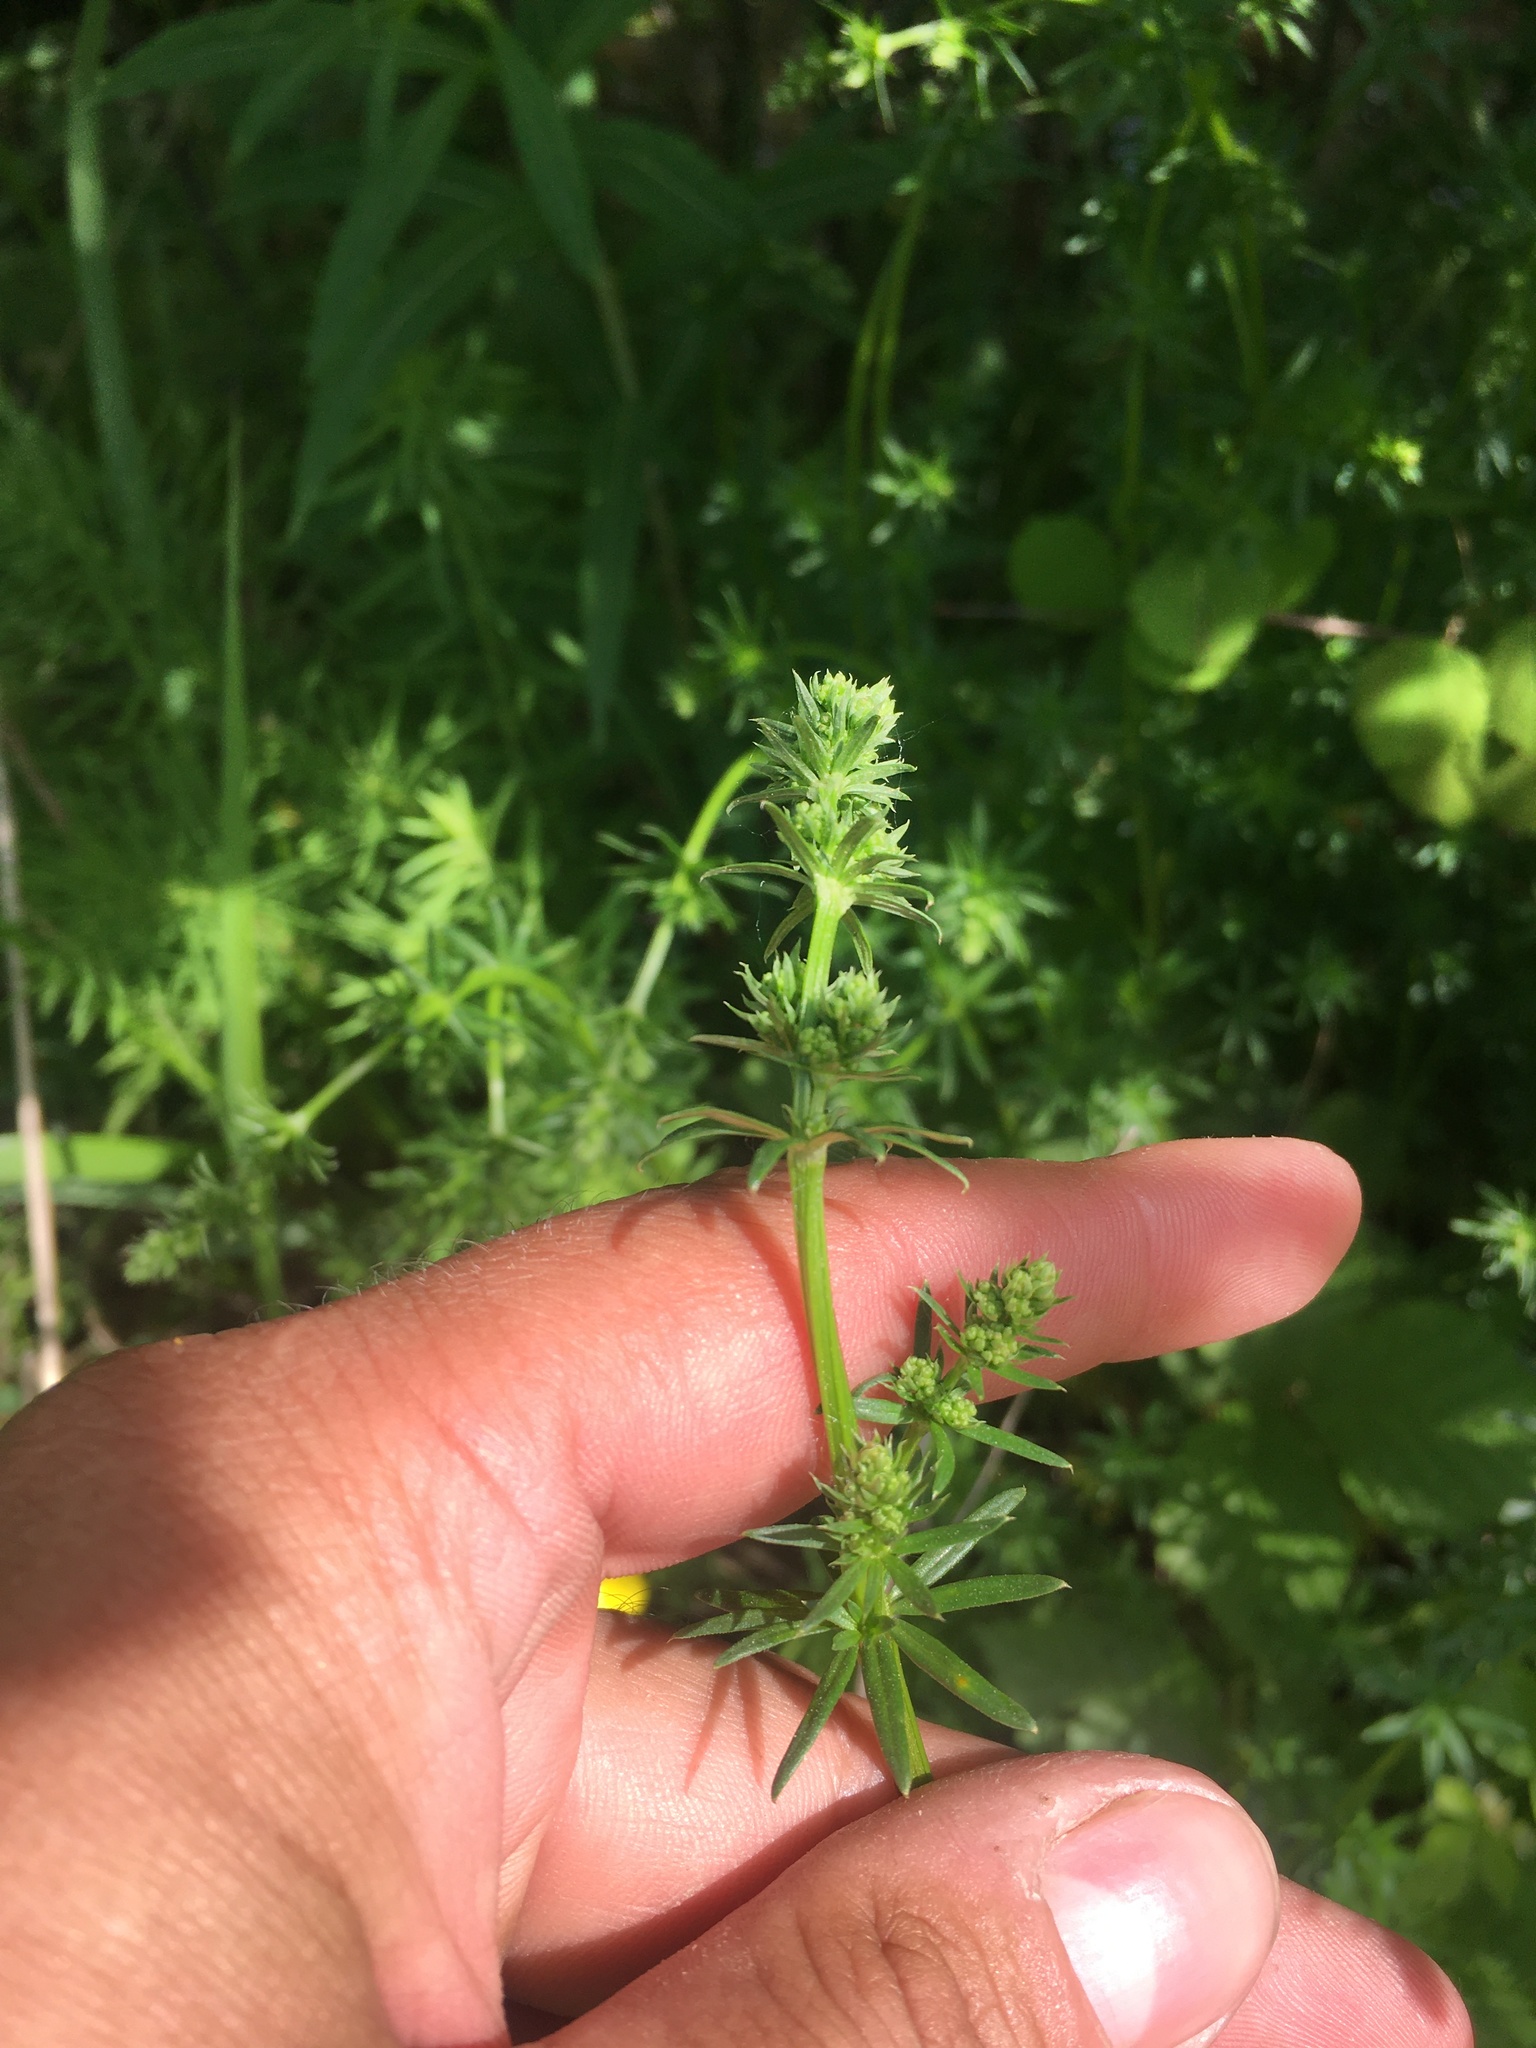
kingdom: Plantae
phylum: Tracheophyta
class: Magnoliopsida
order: Gentianales
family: Rubiaceae
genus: Galium
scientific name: Galium mollugo
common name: Hedge bedstraw
